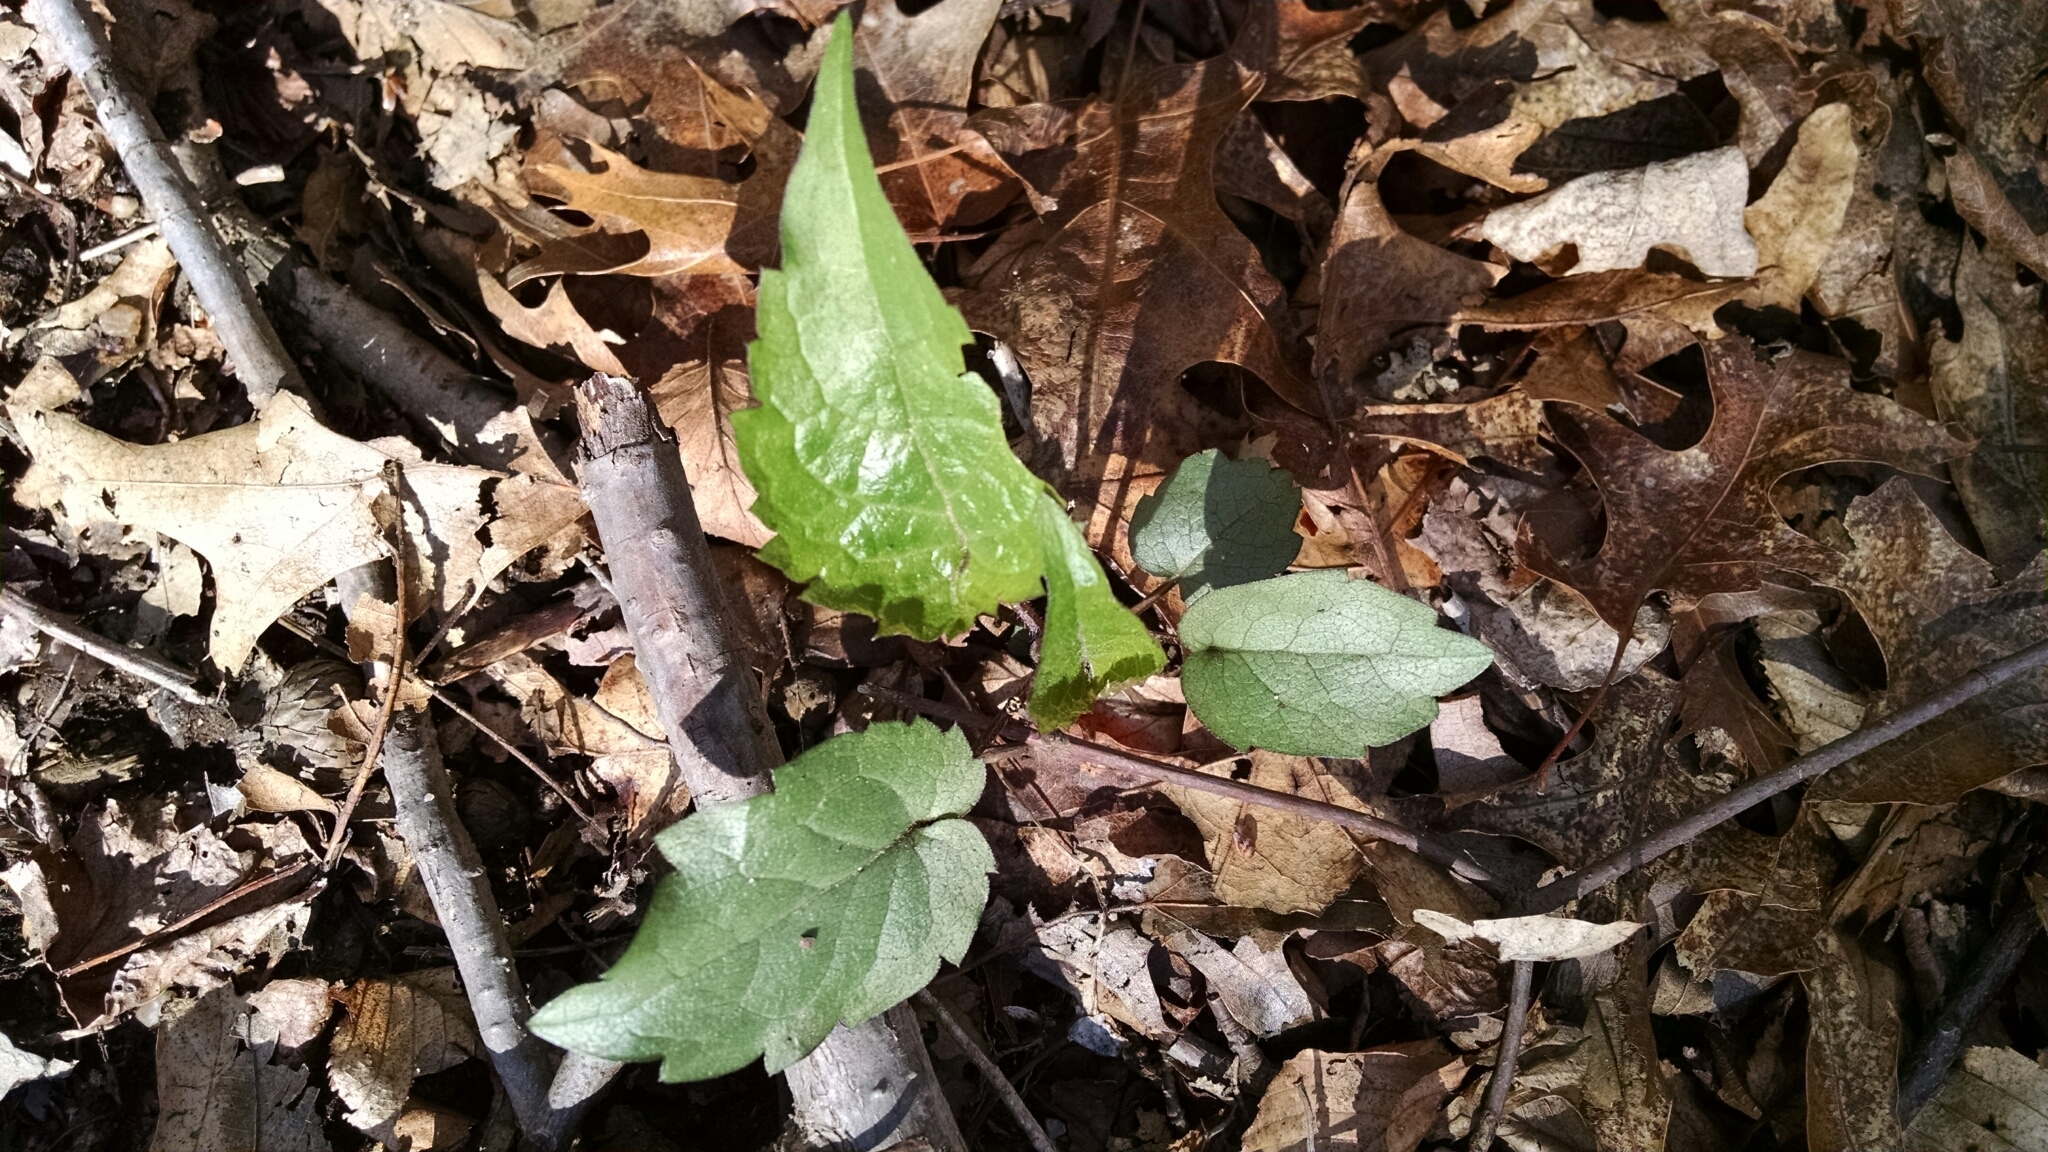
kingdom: Plantae
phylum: Tracheophyta
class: Magnoliopsida
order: Asterales
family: Asteraceae
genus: Eurybia
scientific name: Eurybia divaricata
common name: White wood aster
